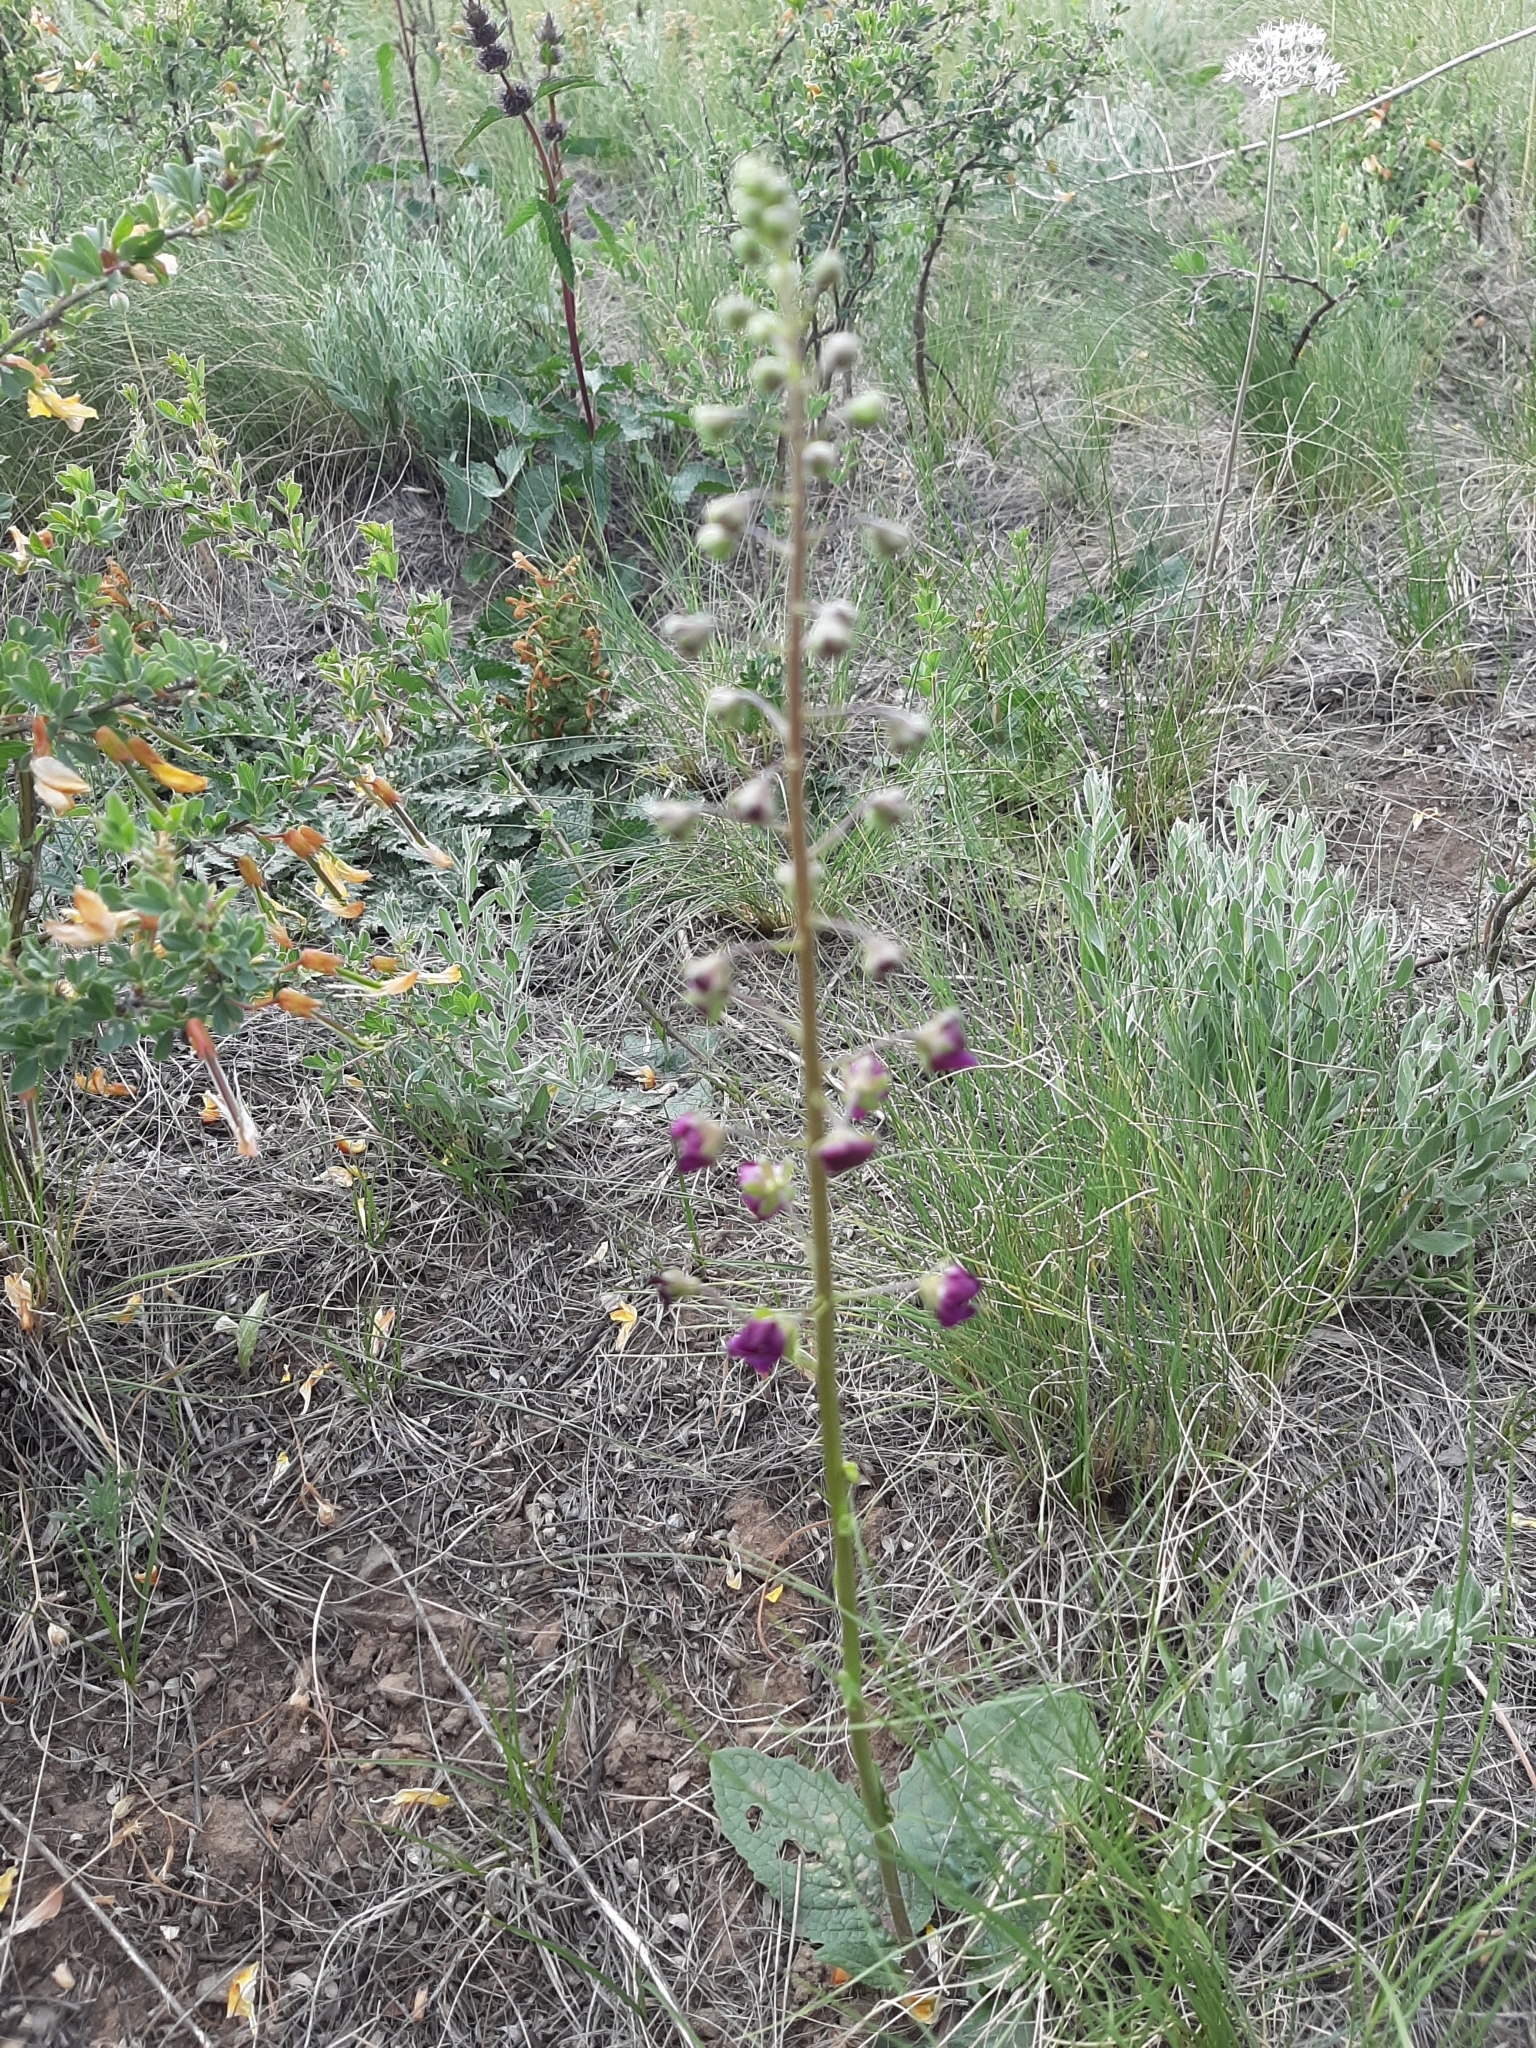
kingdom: Plantae
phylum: Tracheophyta
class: Magnoliopsida
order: Lamiales
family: Scrophulariaceae
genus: Verbascum
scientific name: Verbascum phoeniceum
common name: Purple mullein
